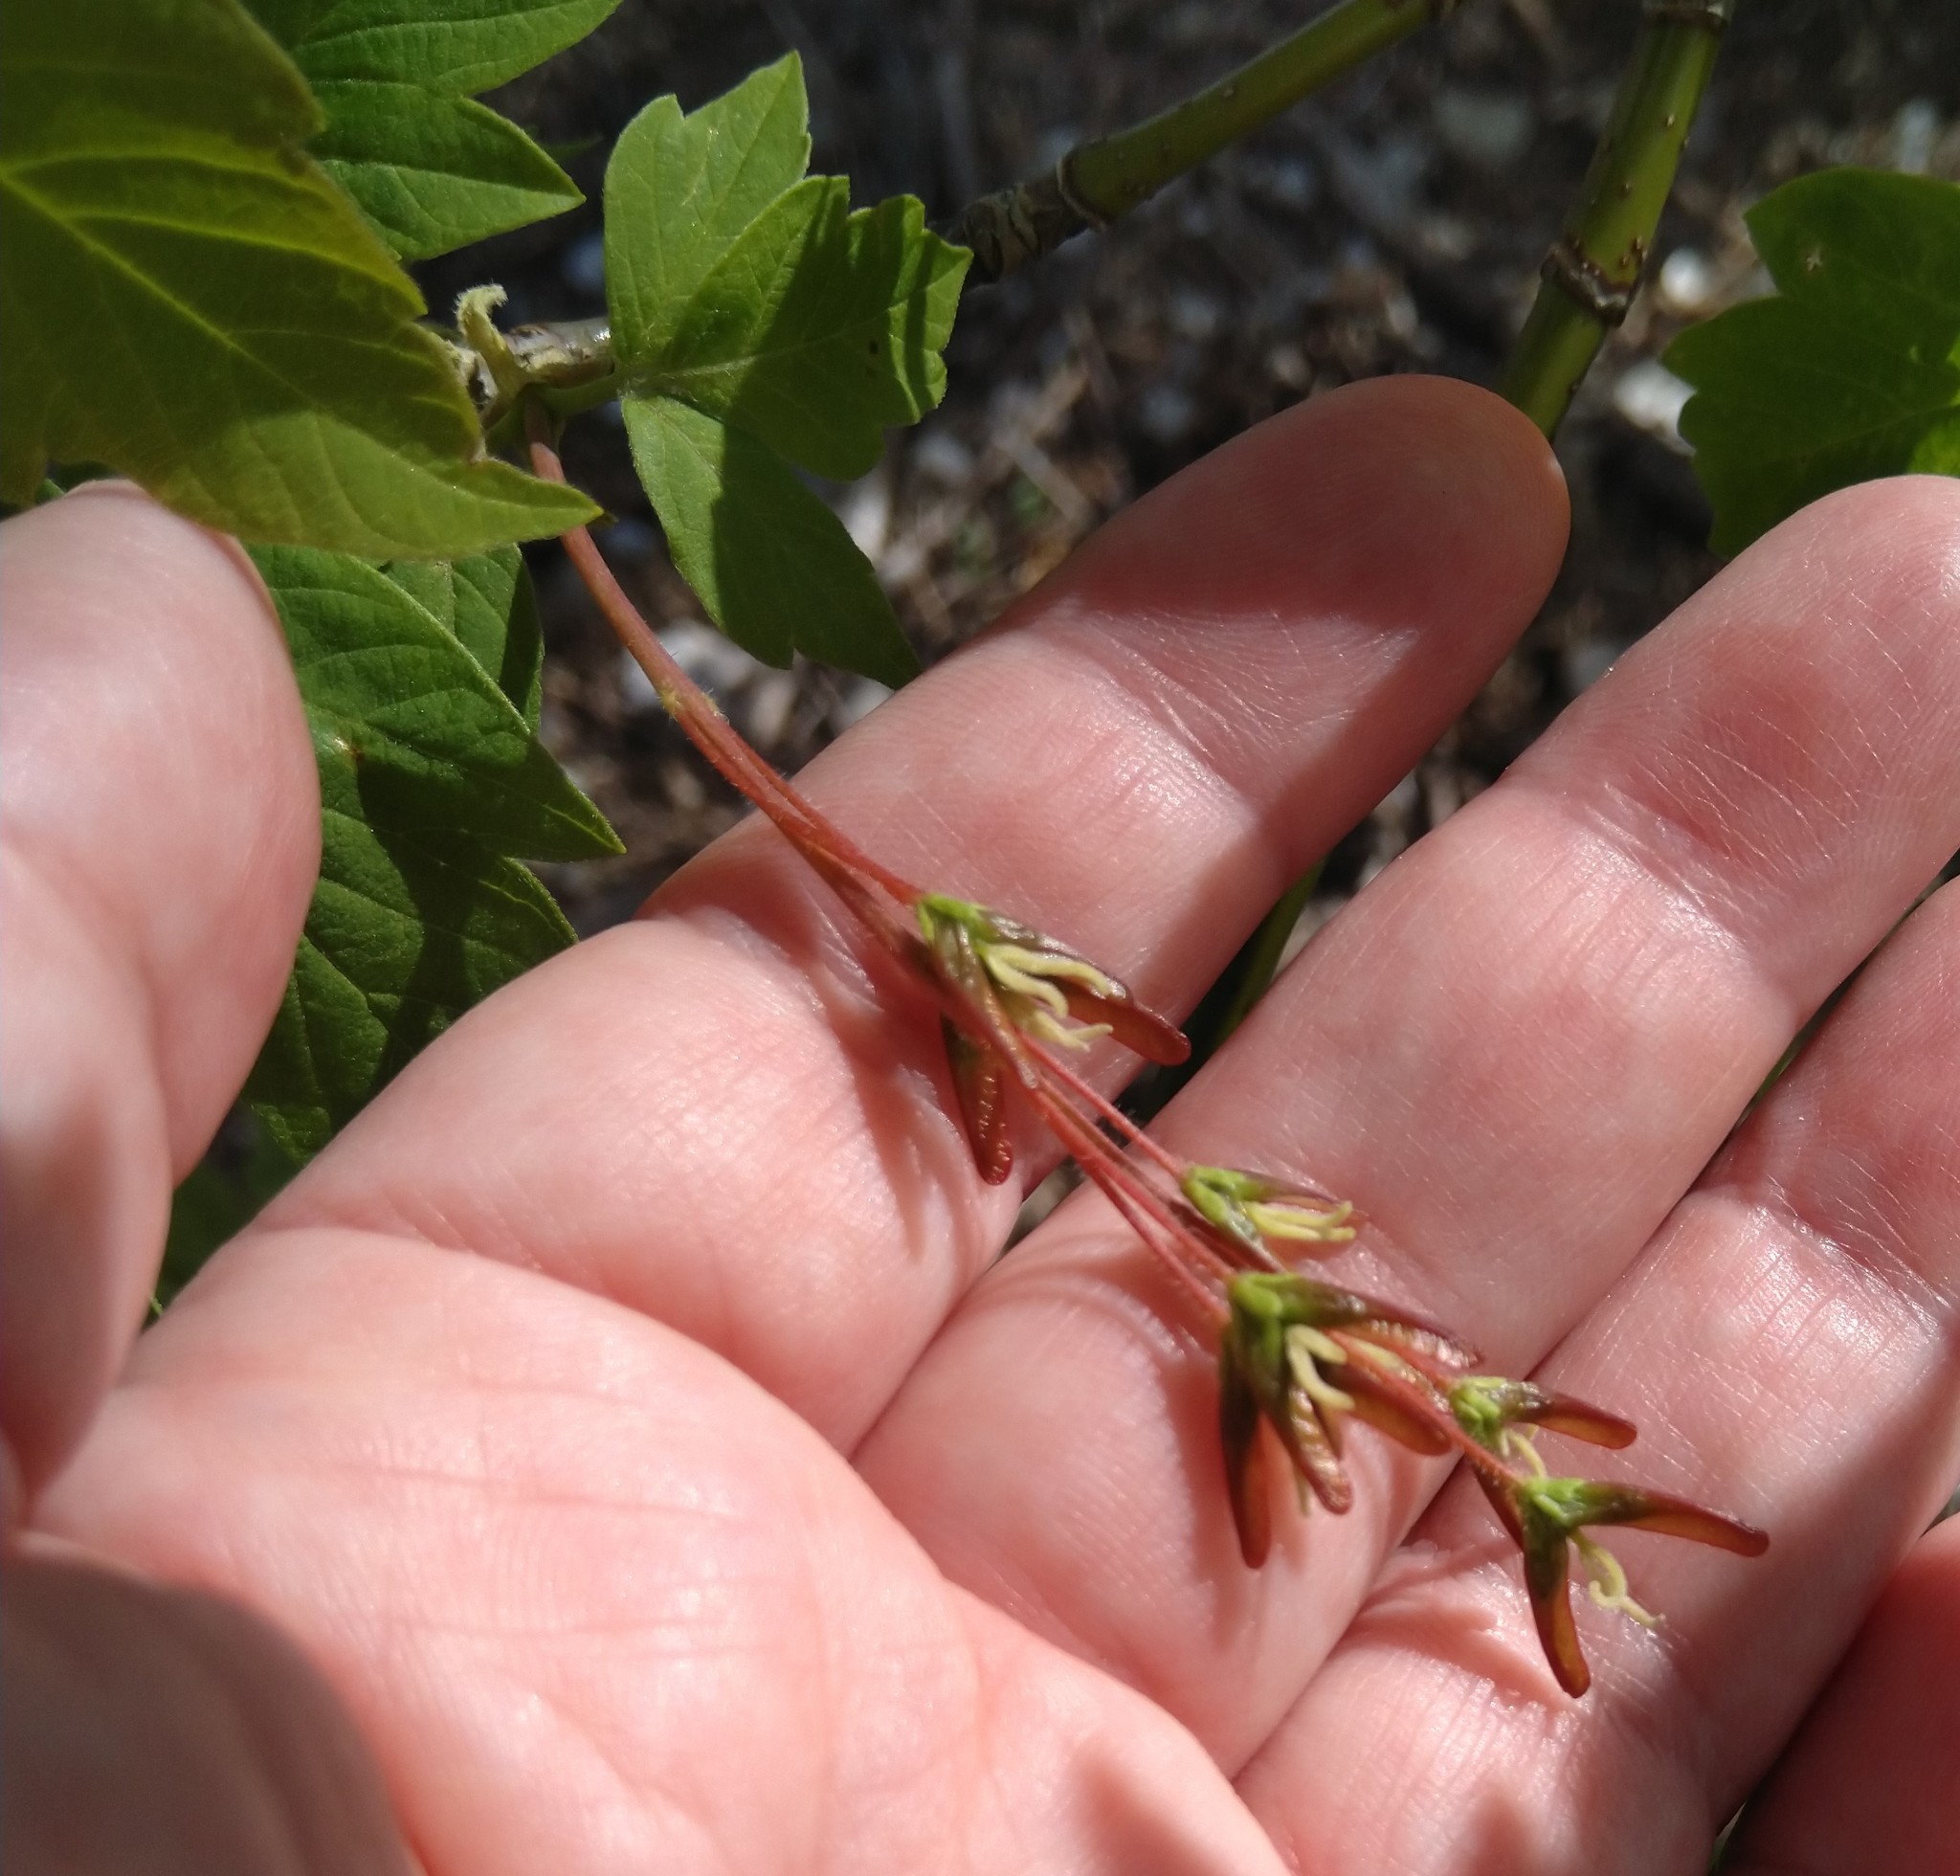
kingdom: Plantae
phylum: Tracheophyta
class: Magnoliopsida
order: Sapindales
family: Sapindaceae
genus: Acer
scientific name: Acer negundo
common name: Ashleaf maple
